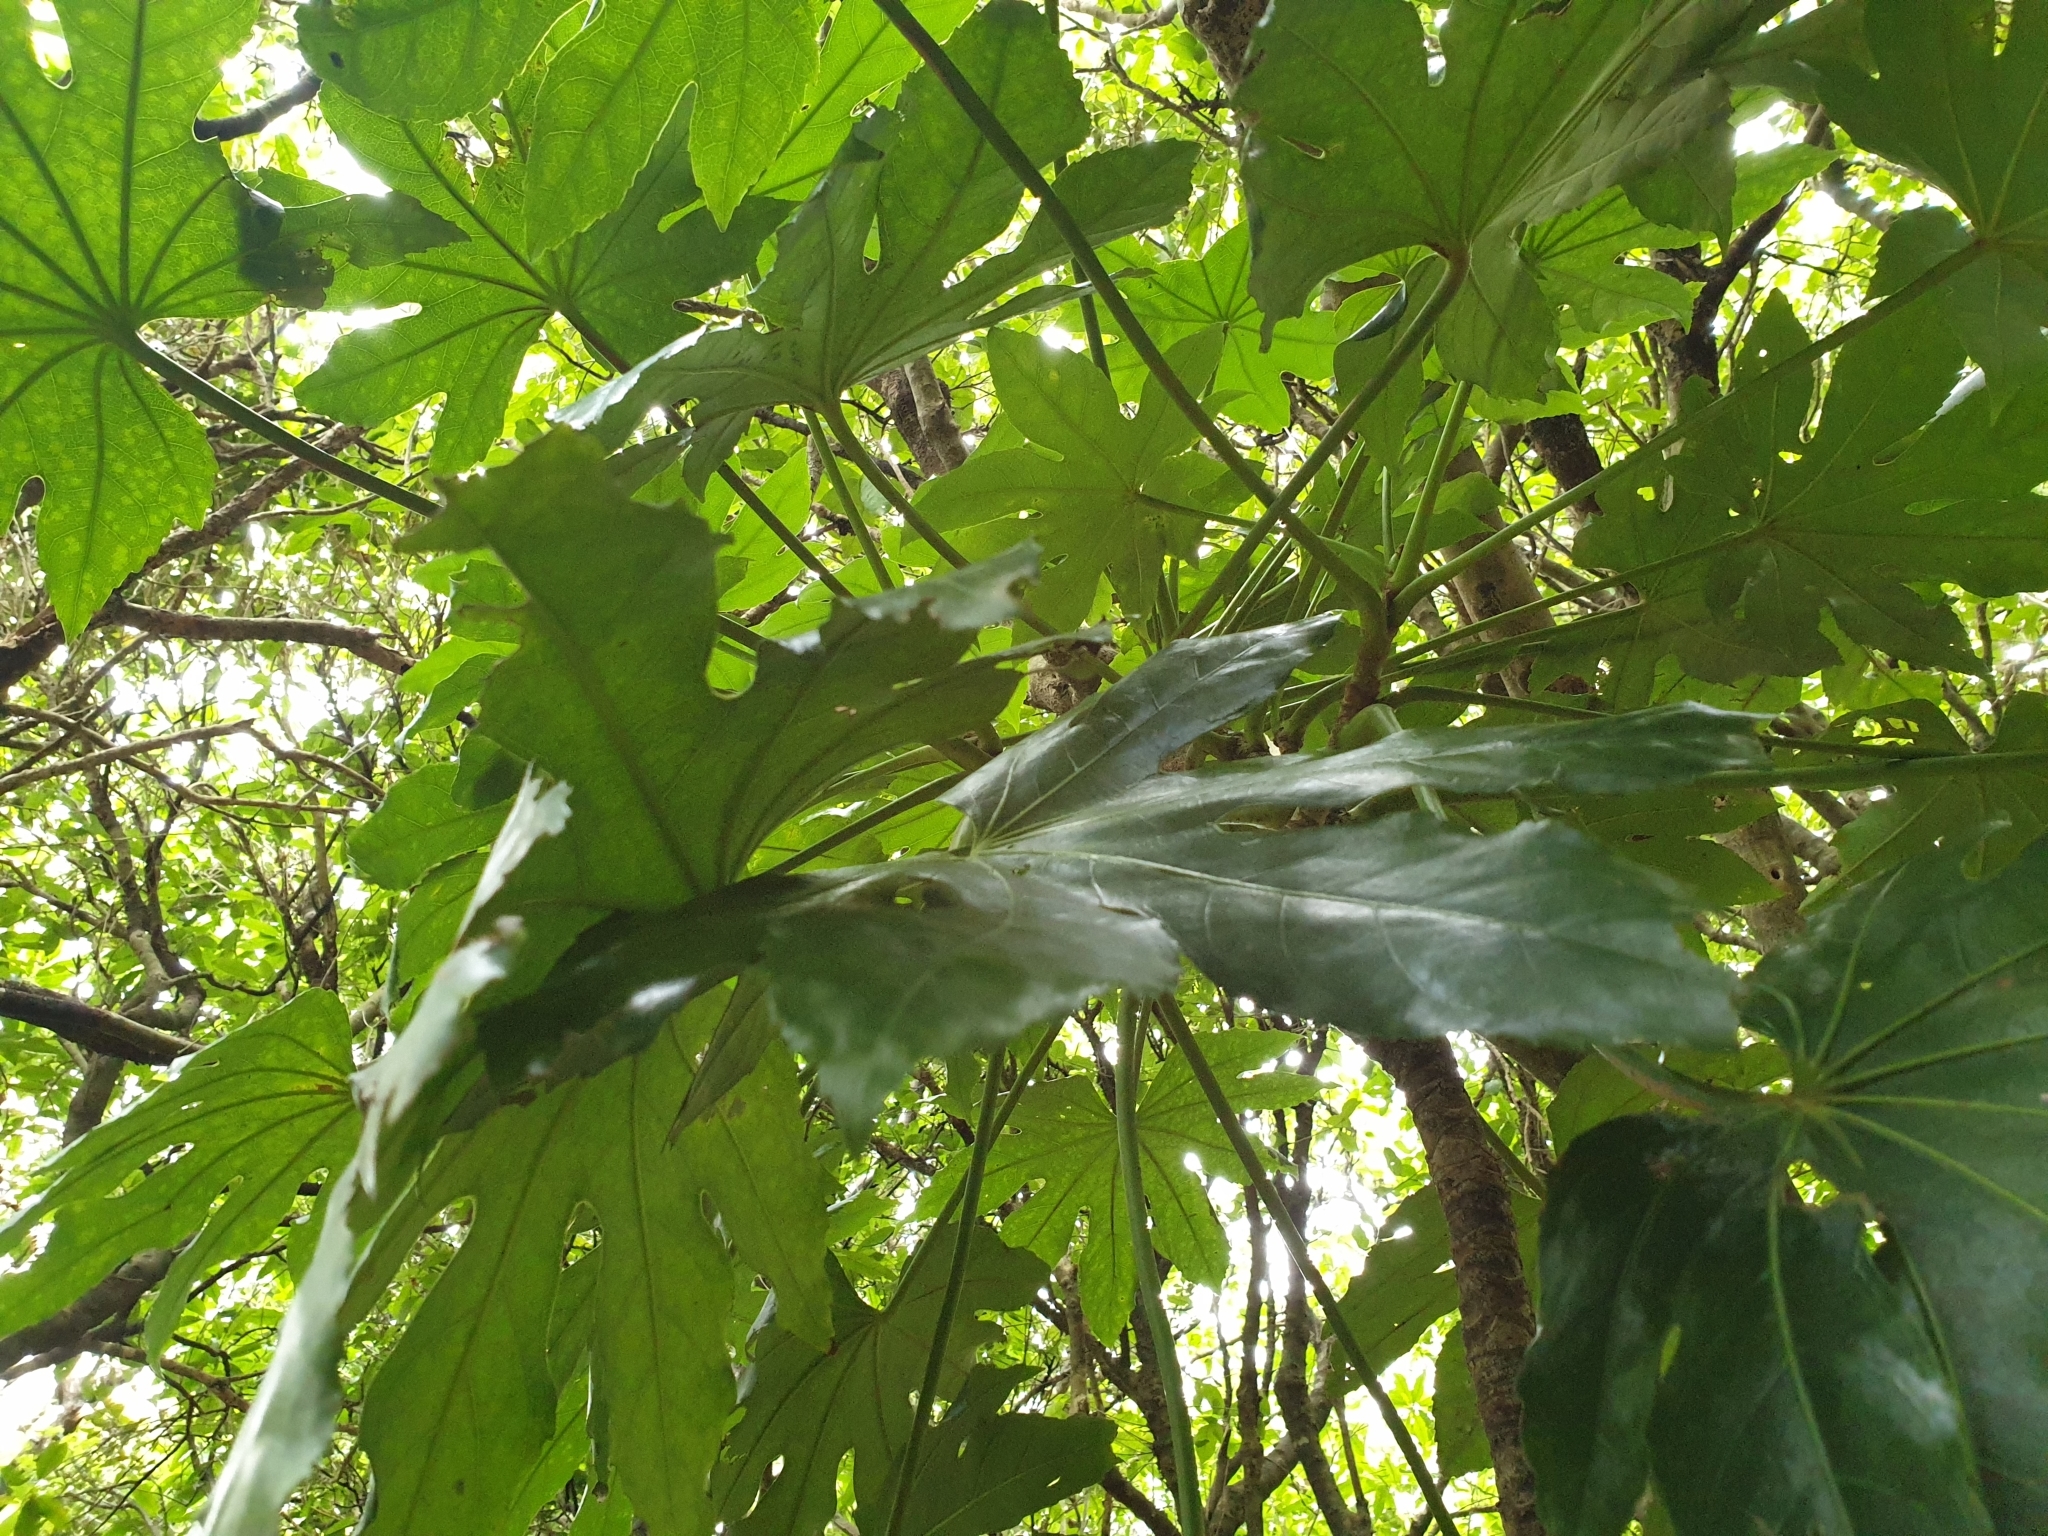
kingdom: Plantae
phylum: Tracheophyta
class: Magnoliopsida
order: Apiales
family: Araliaceae
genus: Fatsia
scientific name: Fatsia japonica
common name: Fatsia
